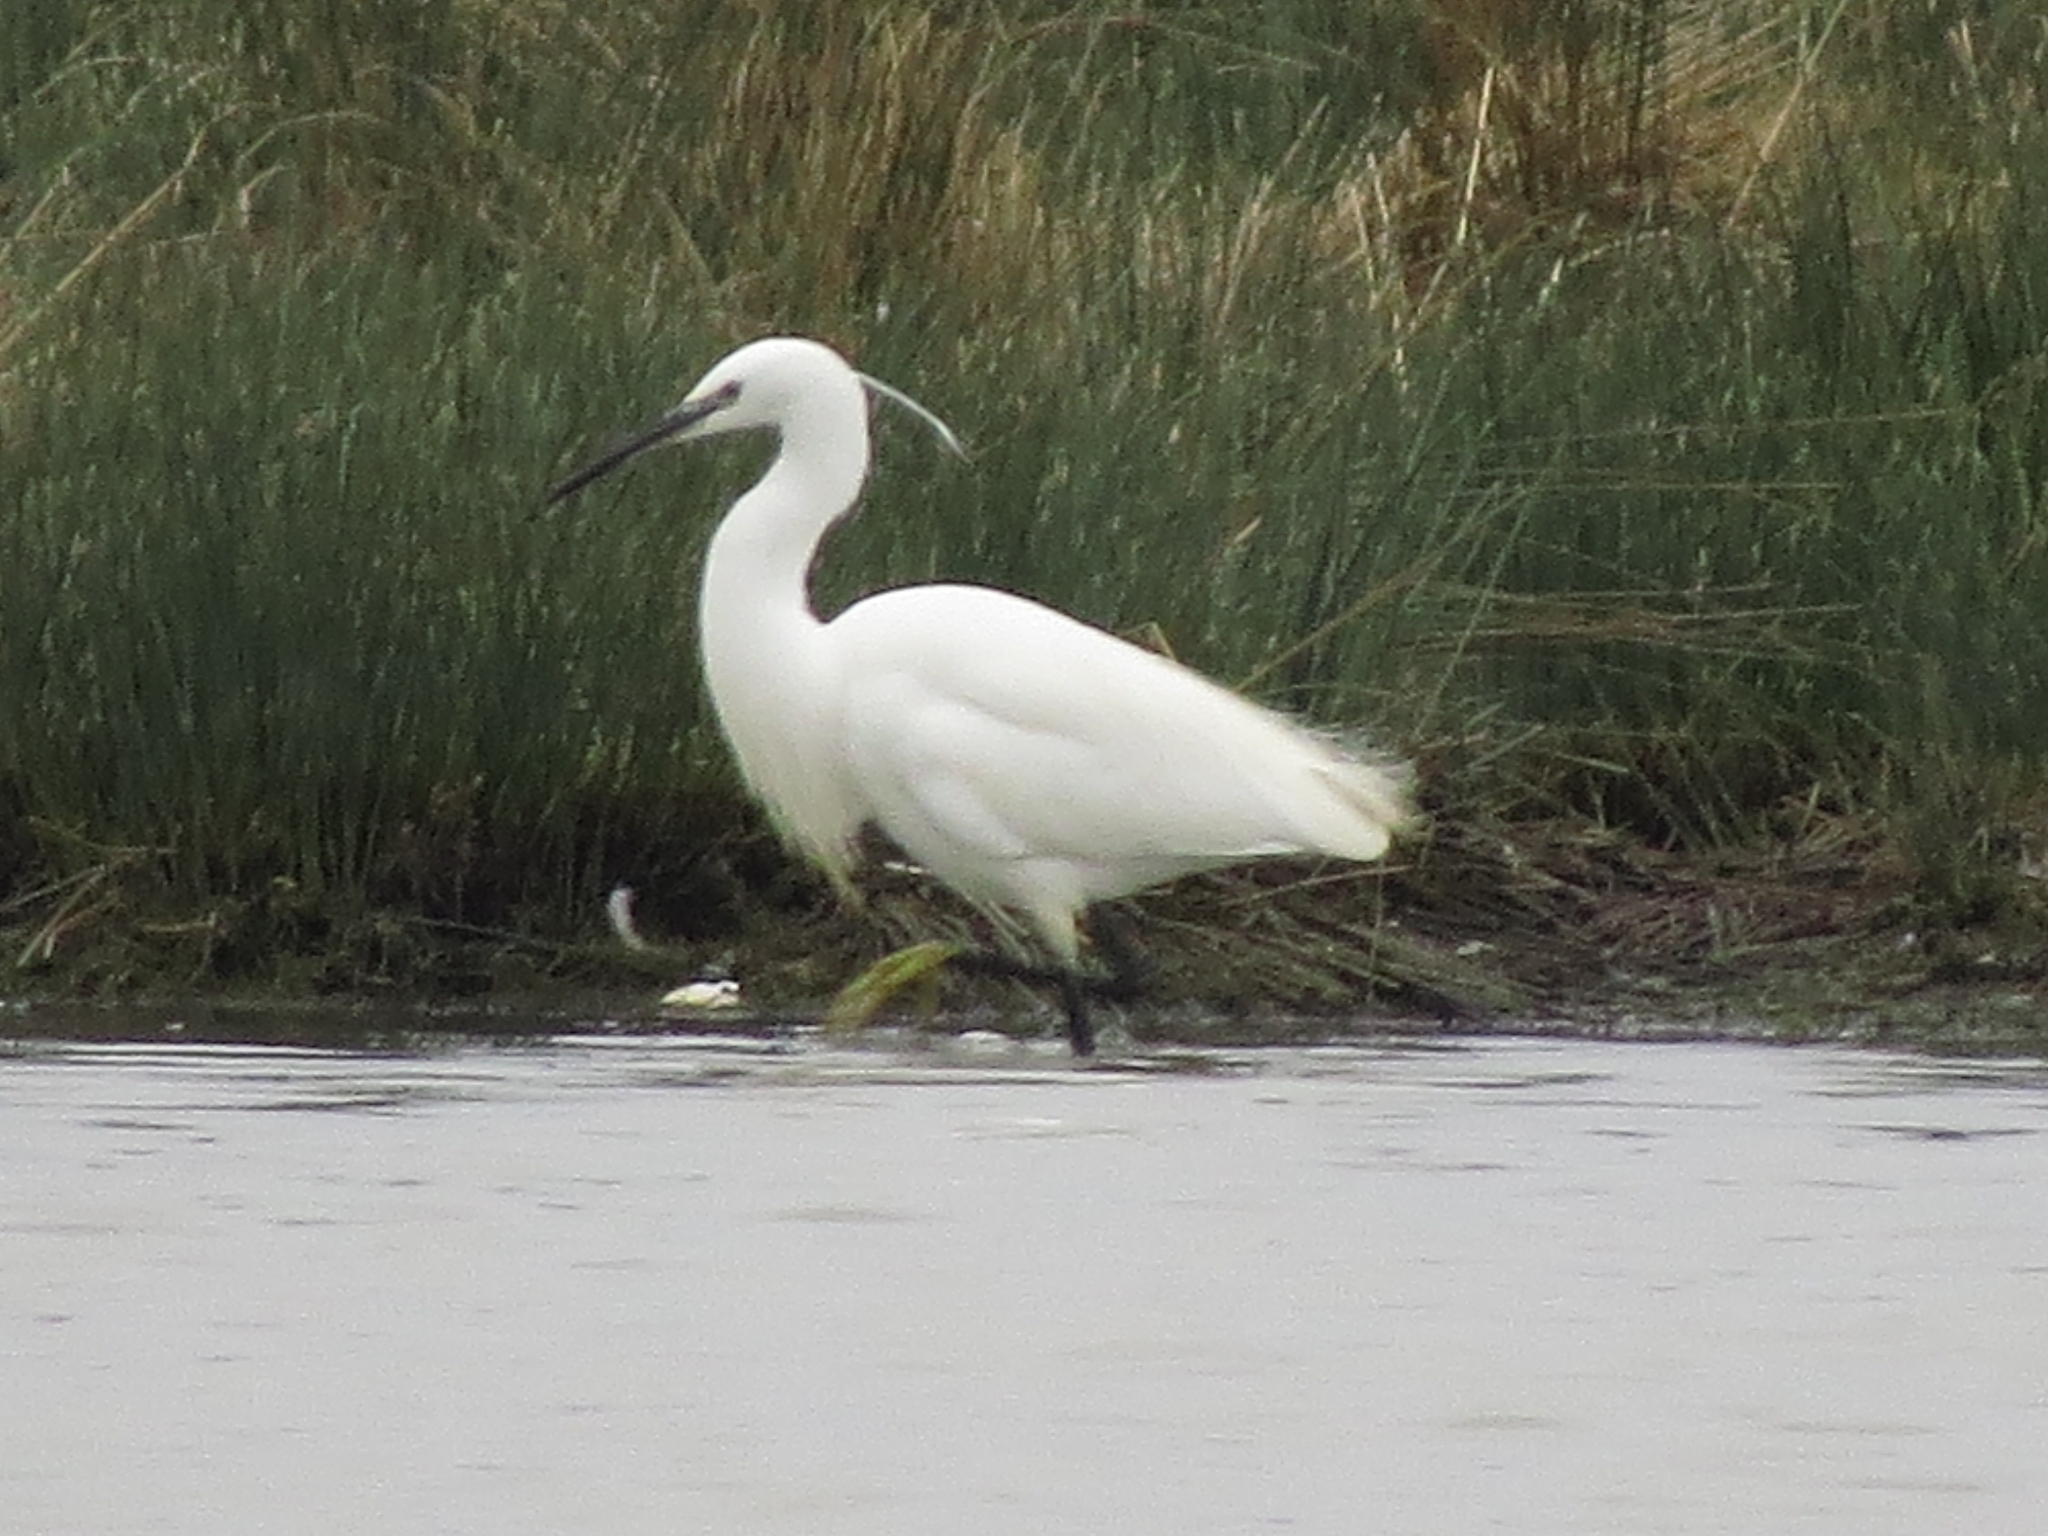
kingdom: Animalia
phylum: Chordata
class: Aves
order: Pelecaniformes
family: Ardeidae
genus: Egretta
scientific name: Egretta garzetta
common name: Little egret
